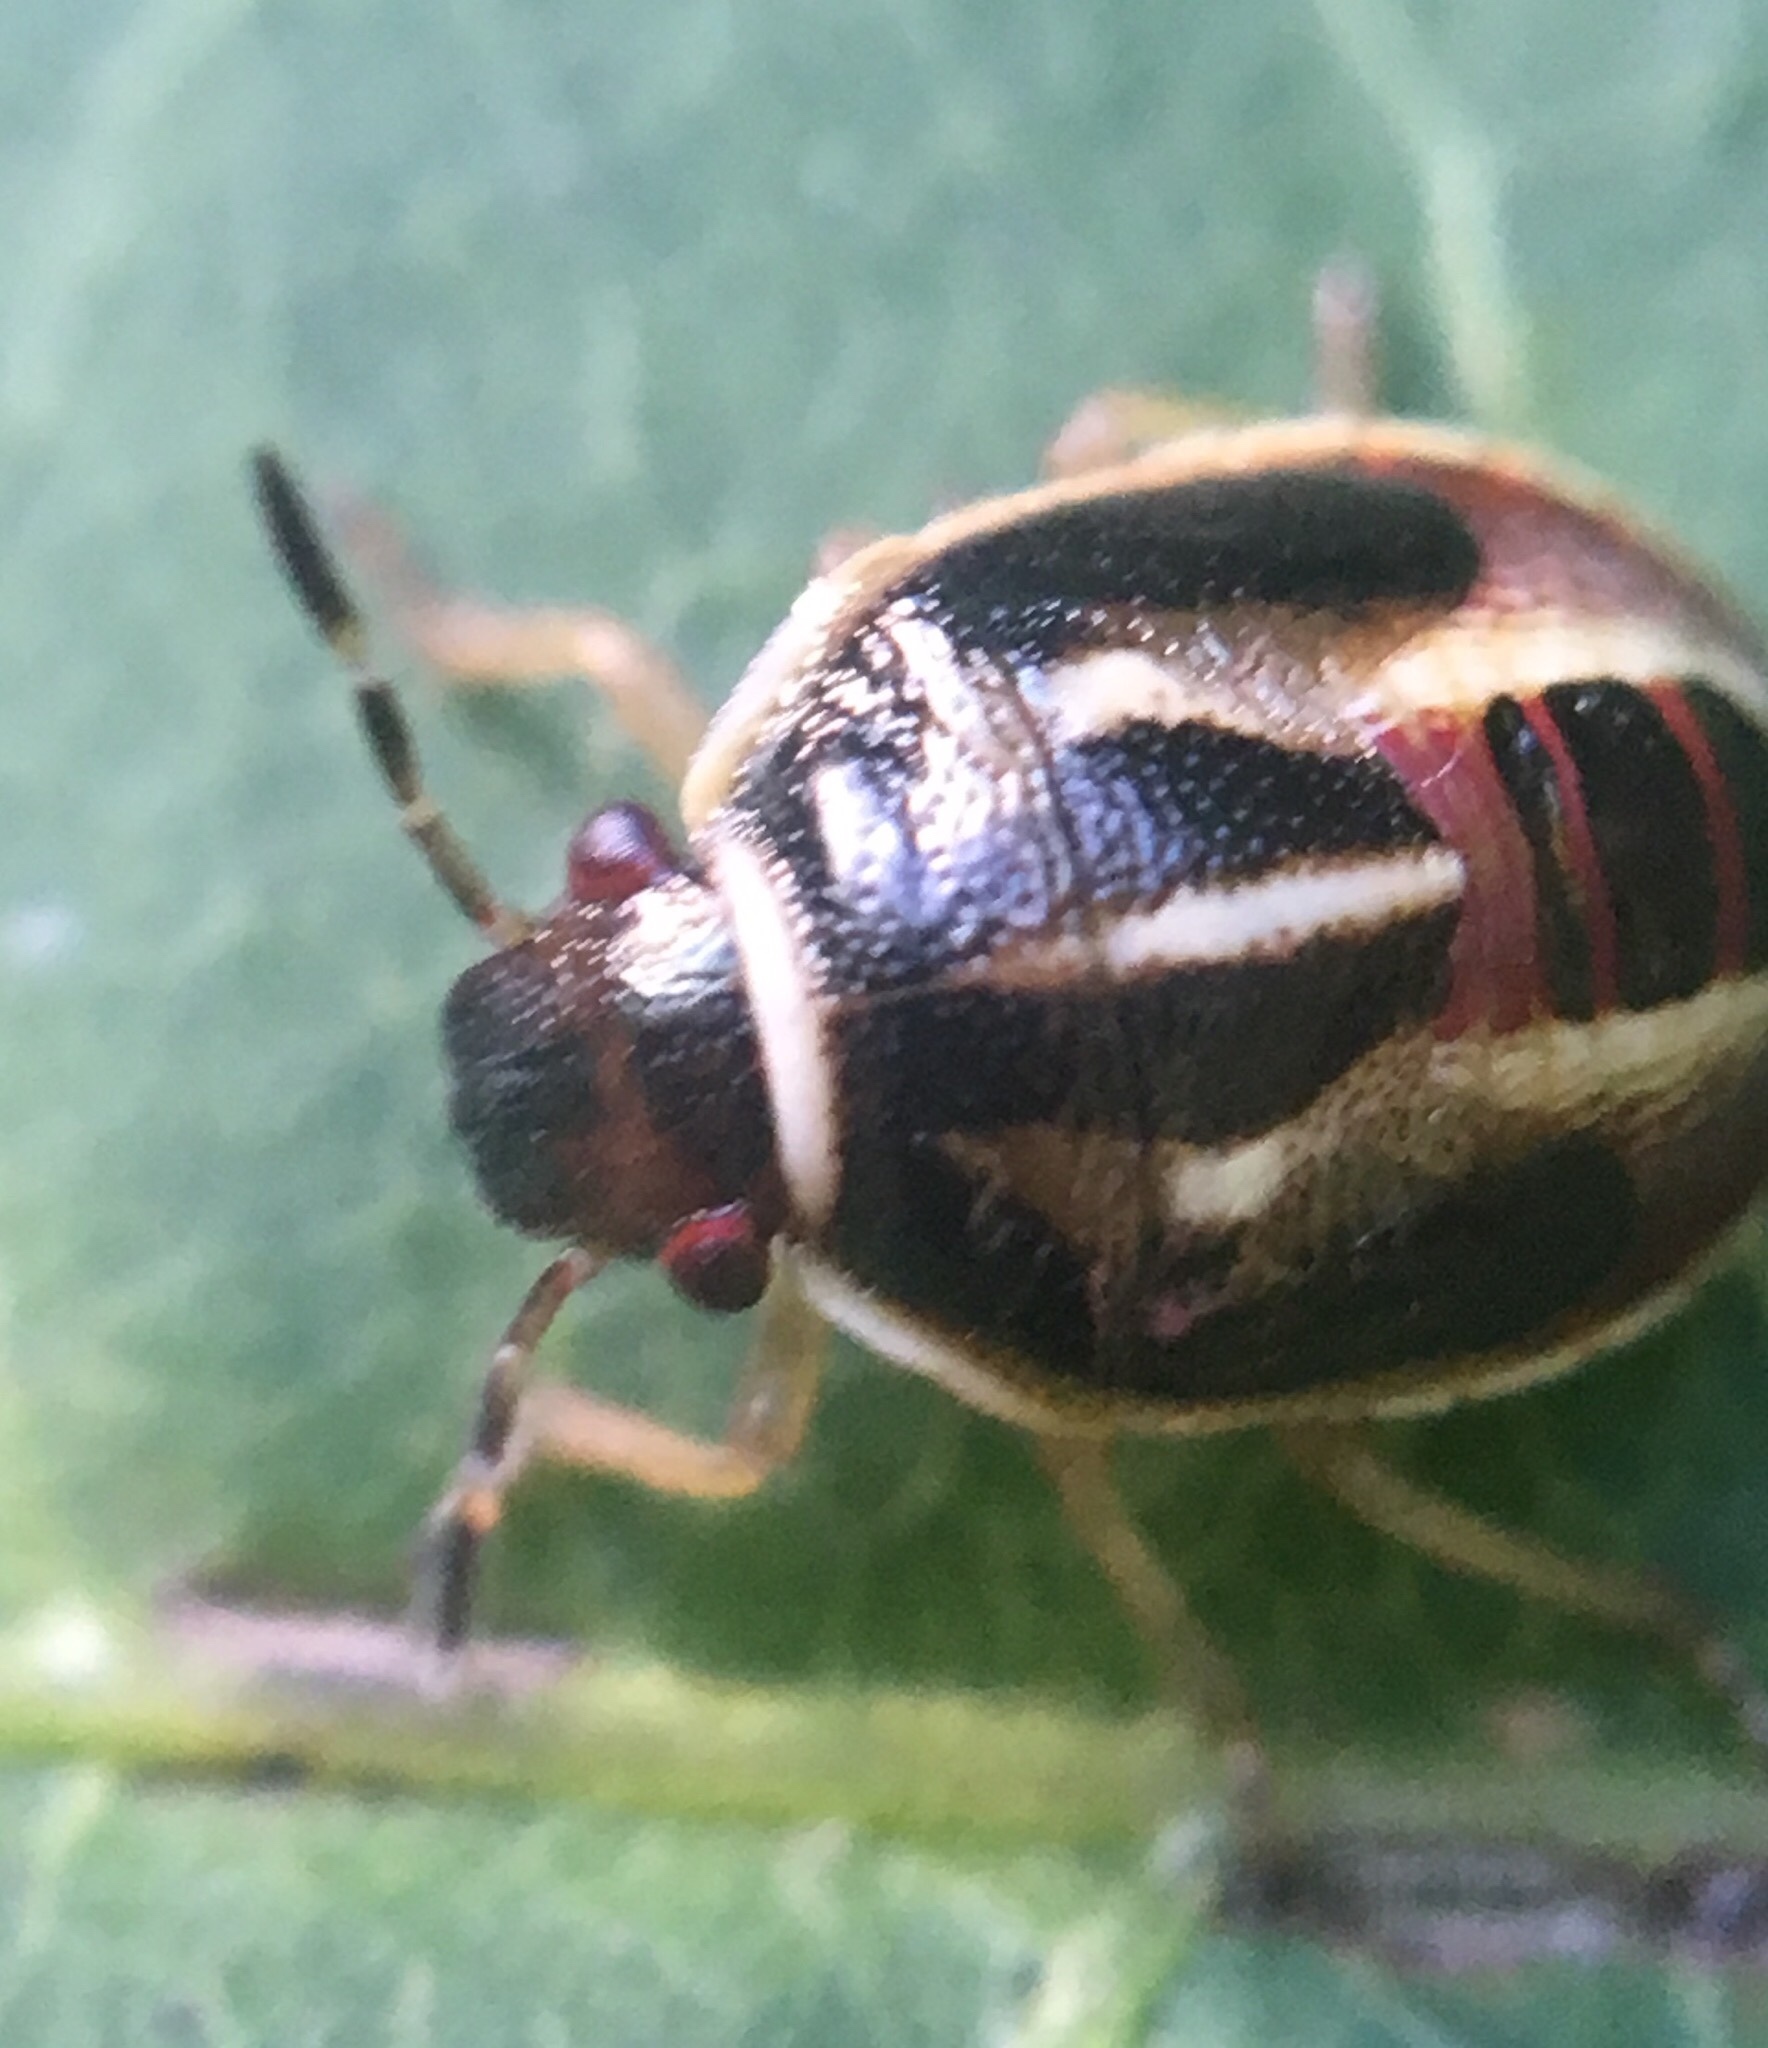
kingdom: Animalia
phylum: Arthropoda
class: Insecta
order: Hemiptera
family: Pentatomidae
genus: Mormidea
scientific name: Mormidea lugens
